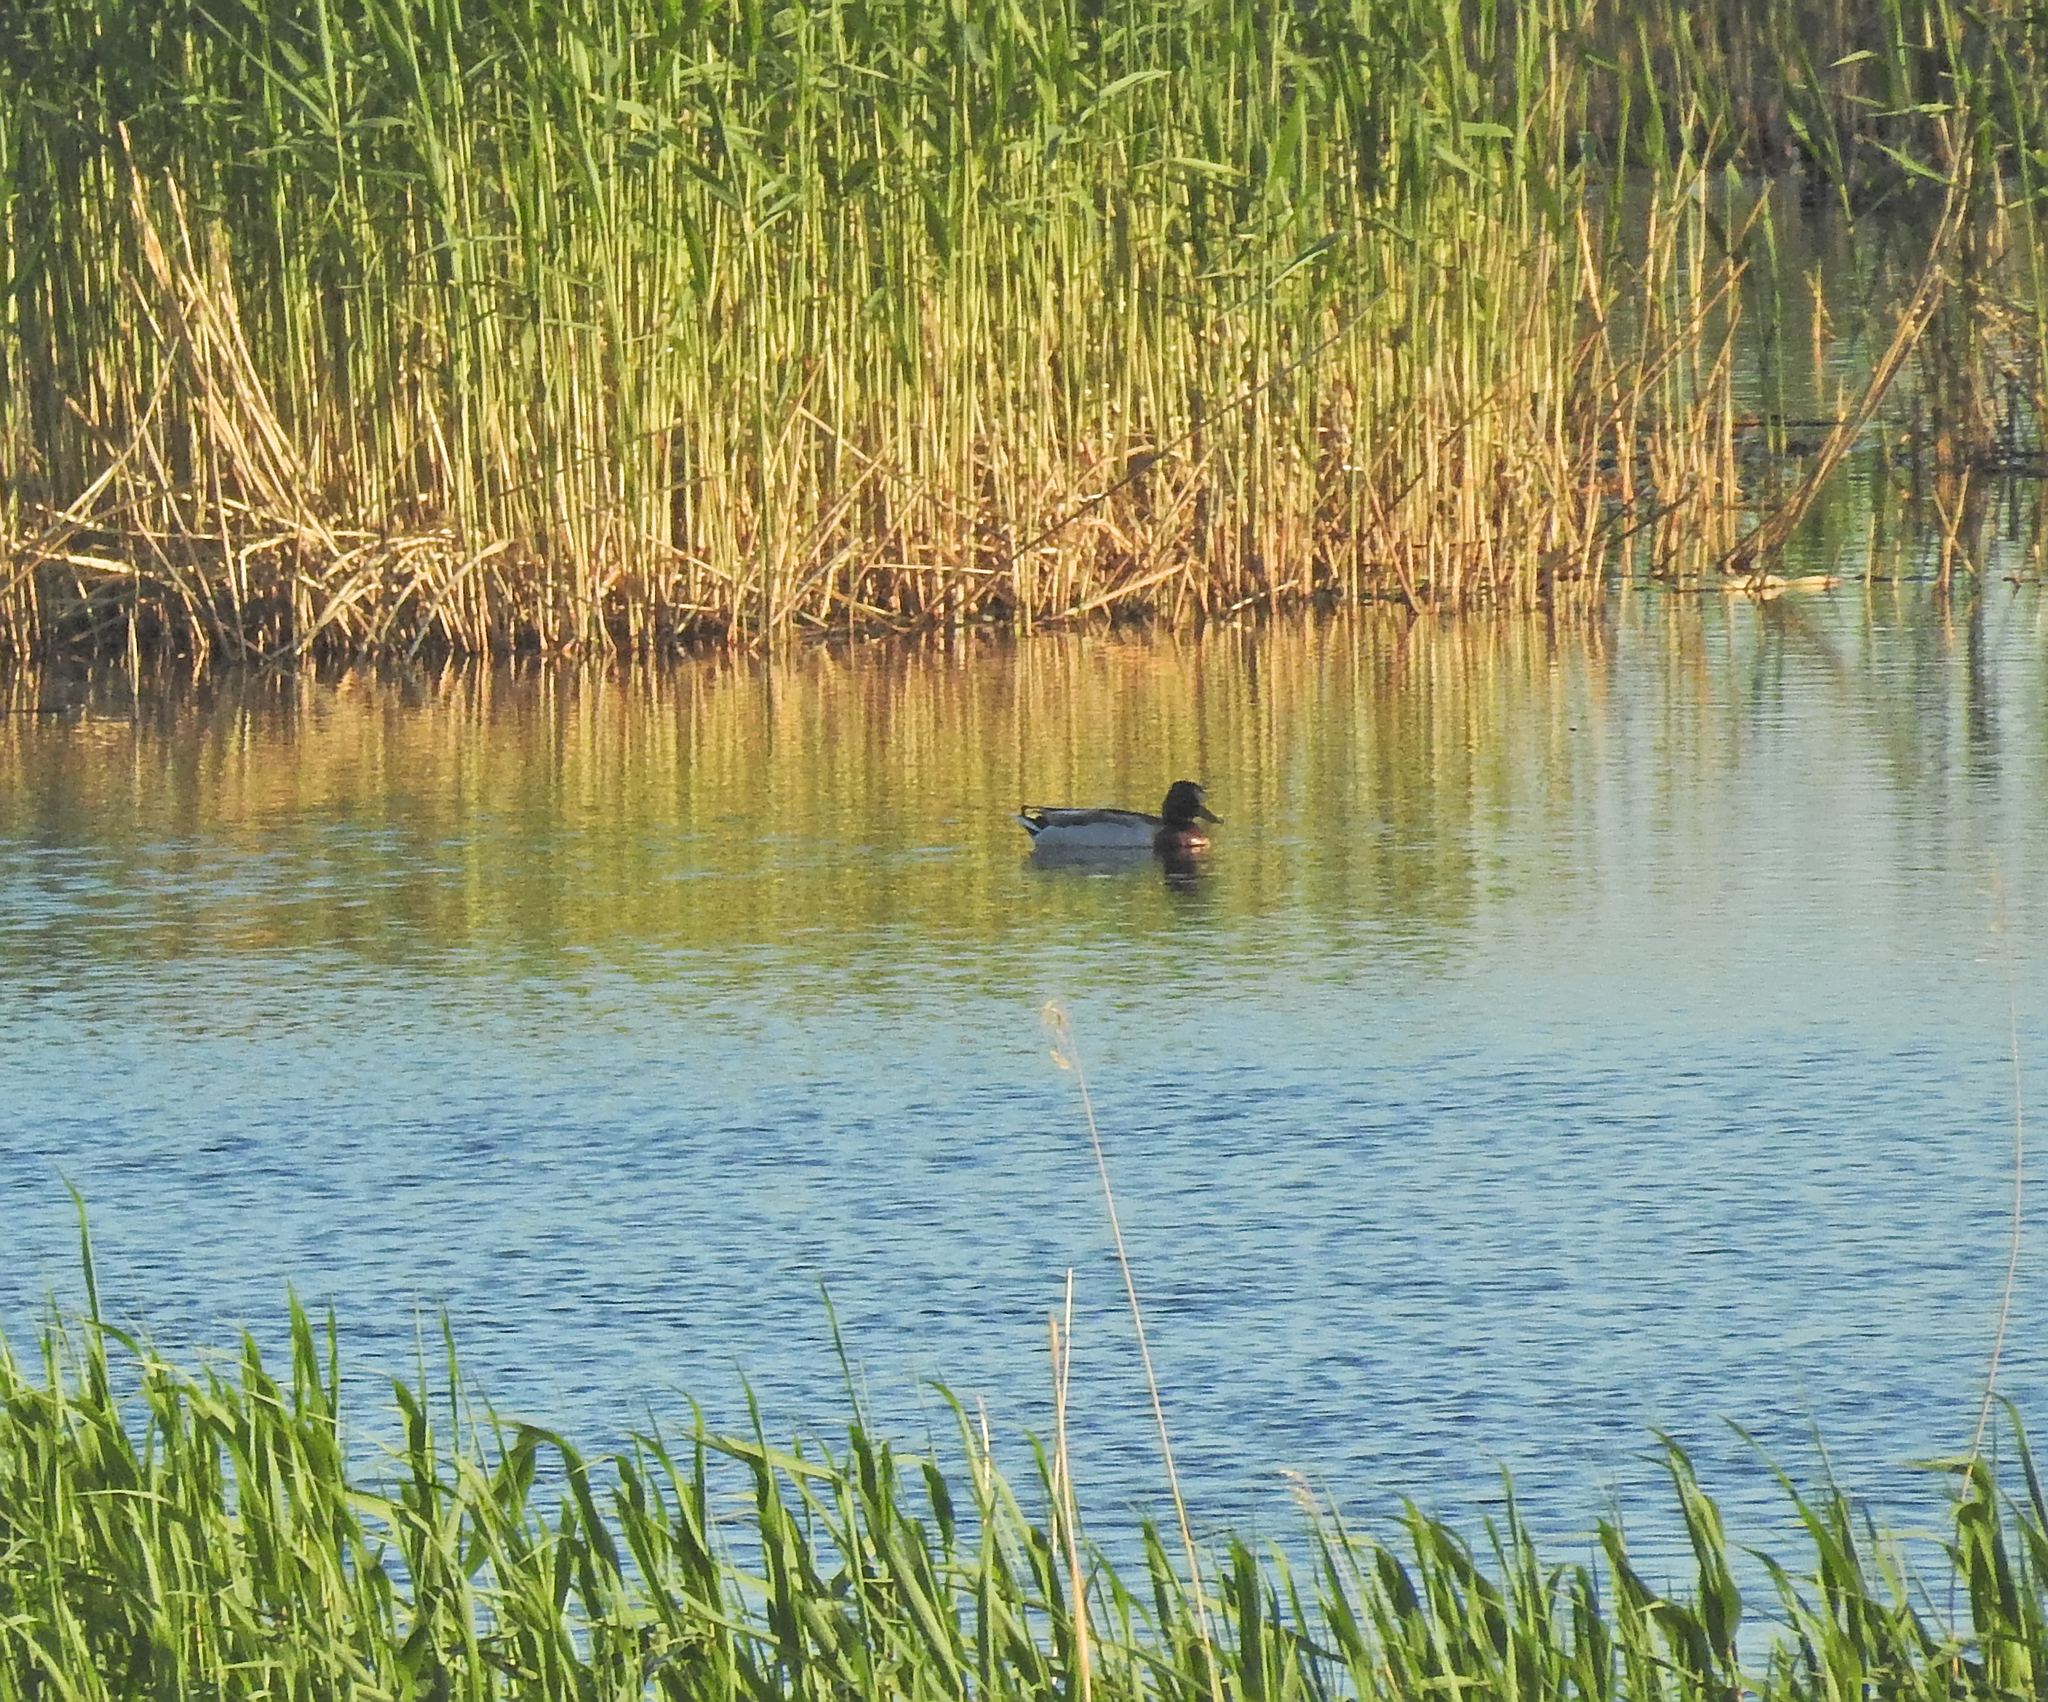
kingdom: Animalia
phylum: Chordata
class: Aves
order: Anseriformes
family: Anatidae
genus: Anas
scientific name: Anas platyrhynchos
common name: Mallard
